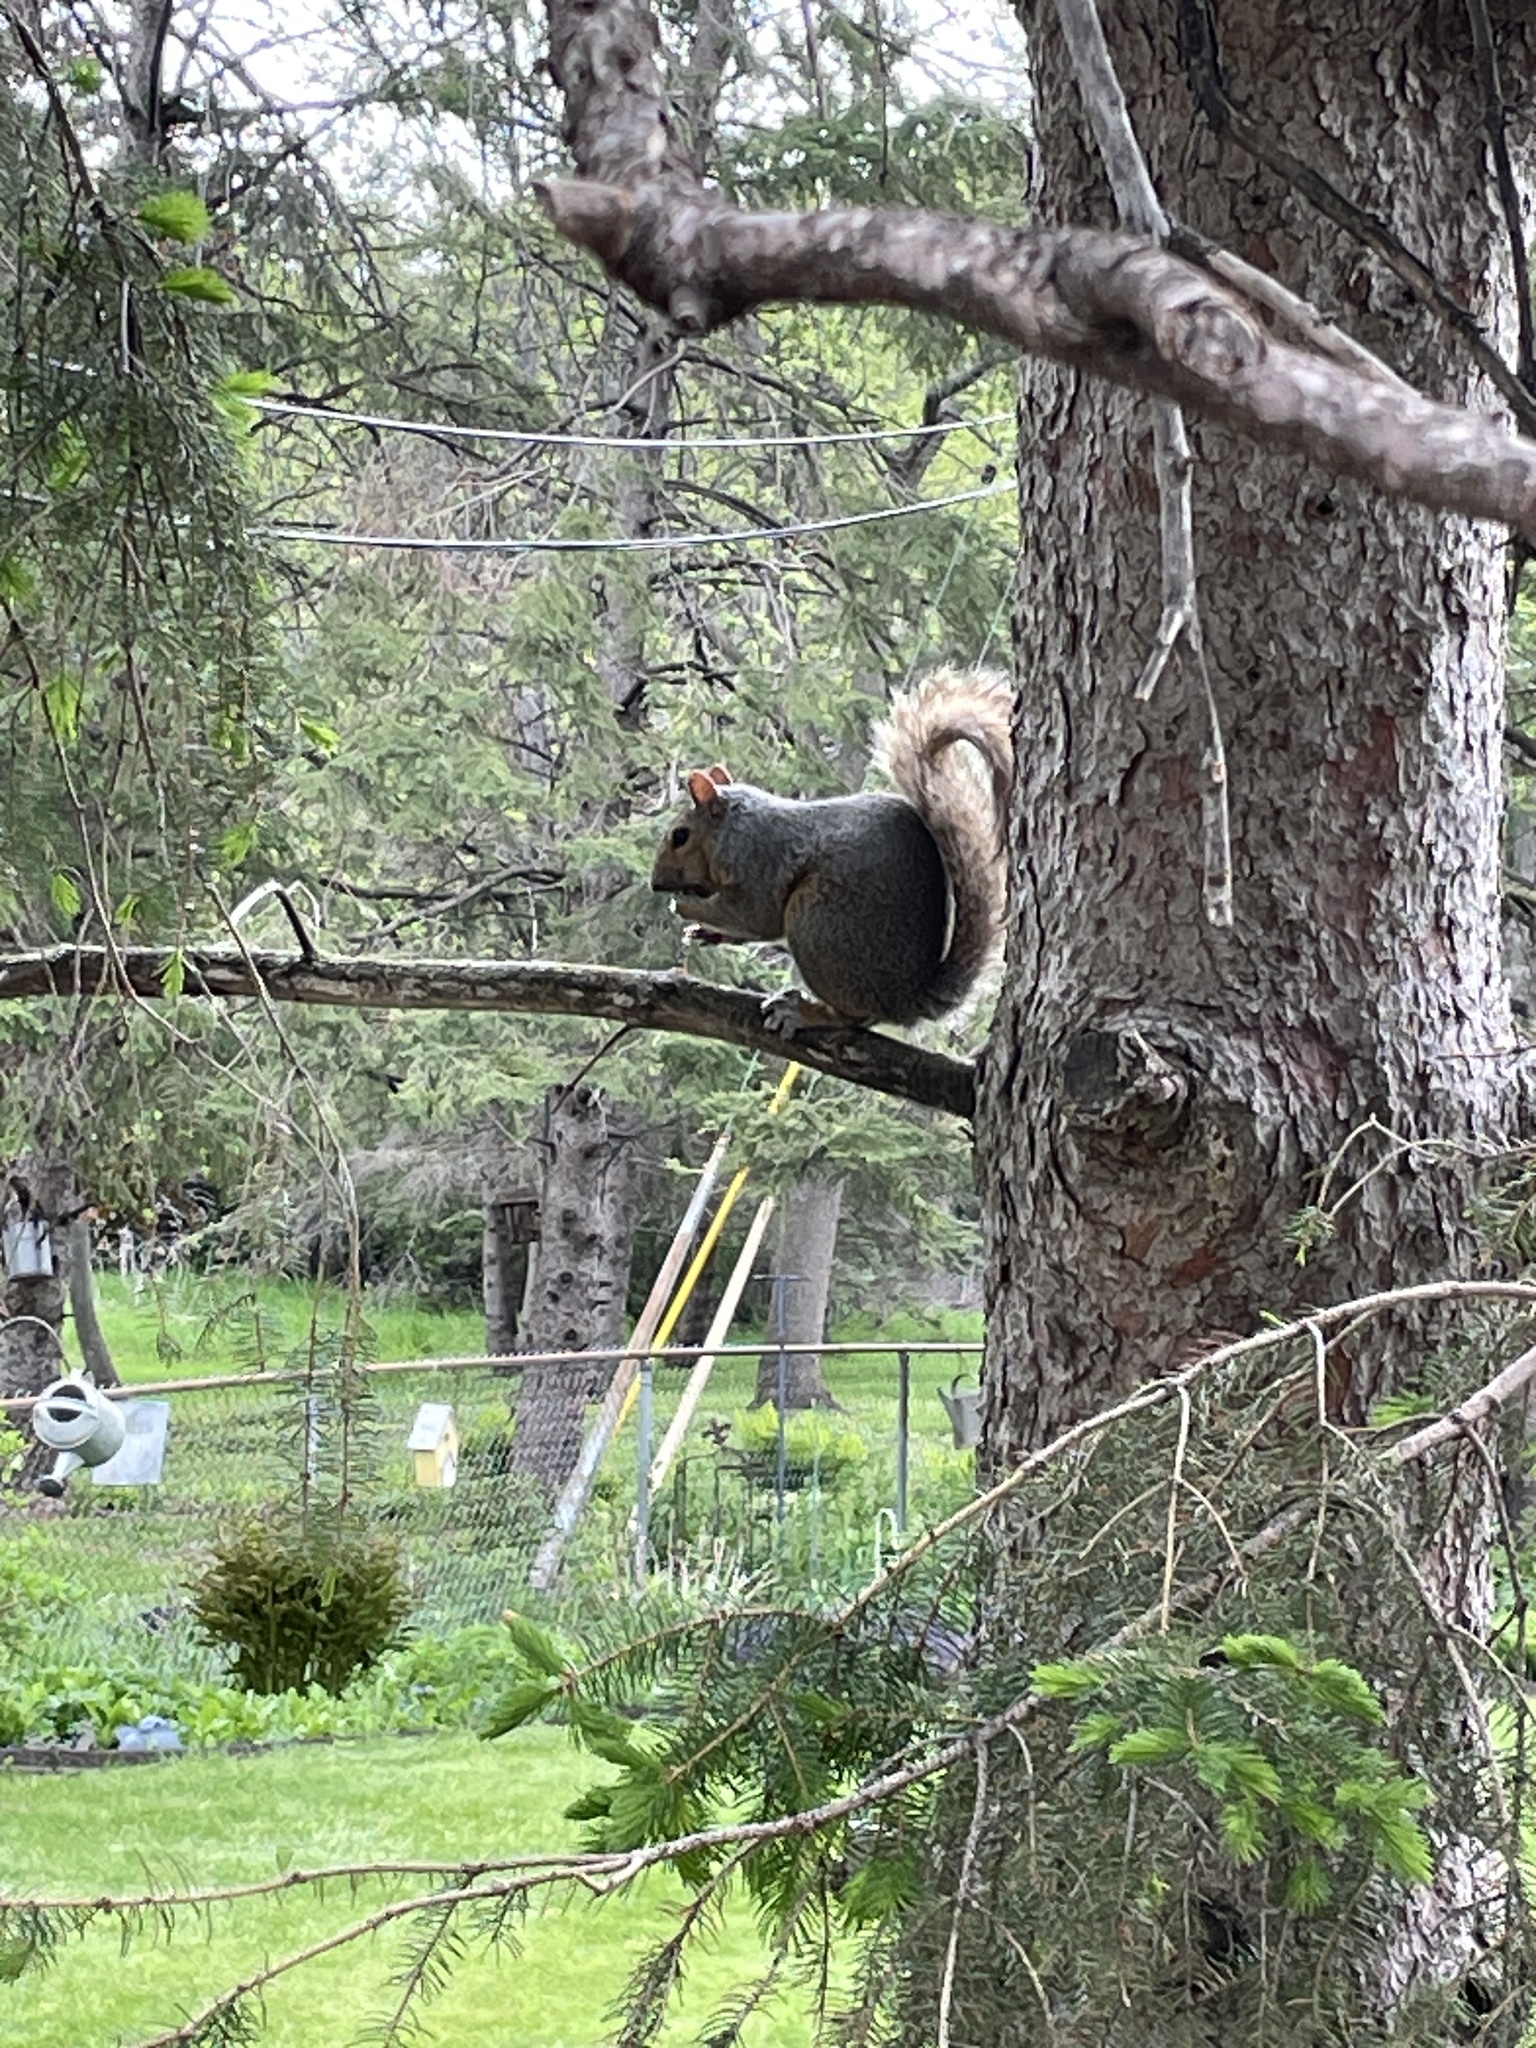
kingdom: Animalia
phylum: Chordata
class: Mammalia
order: Rodentia
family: Sciuridae
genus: Sciurus
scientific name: Sciurus carolinensis
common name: Eastern gray squirrel
